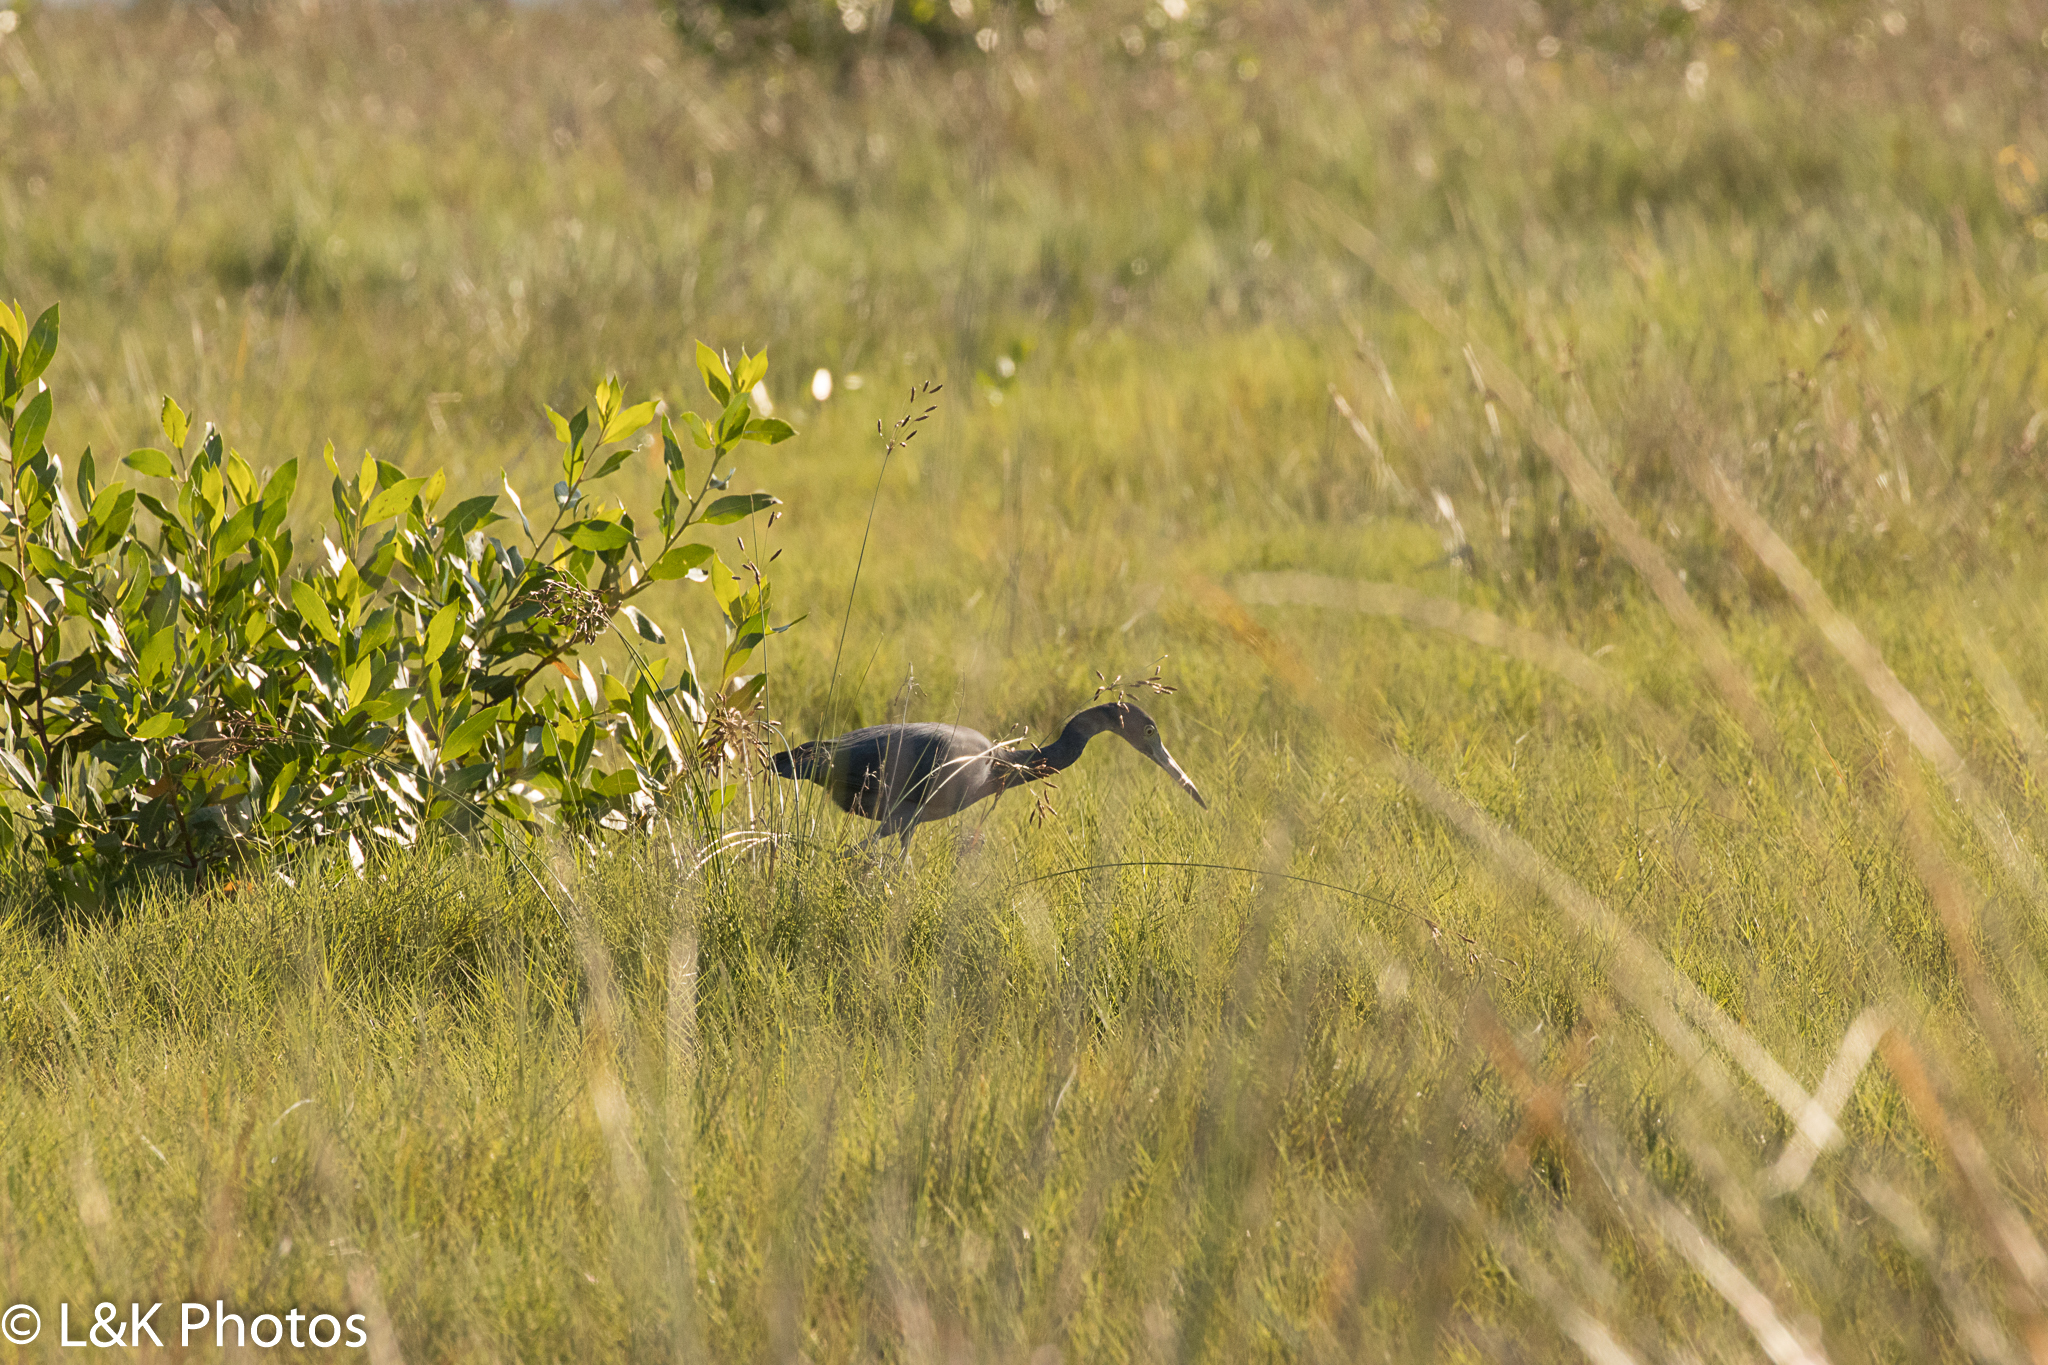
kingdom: Animalia
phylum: Chordata
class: Aves
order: Pelecaniformes
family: Ardeidae
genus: Egretta
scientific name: Egretta caerulea
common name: Little blue heron
